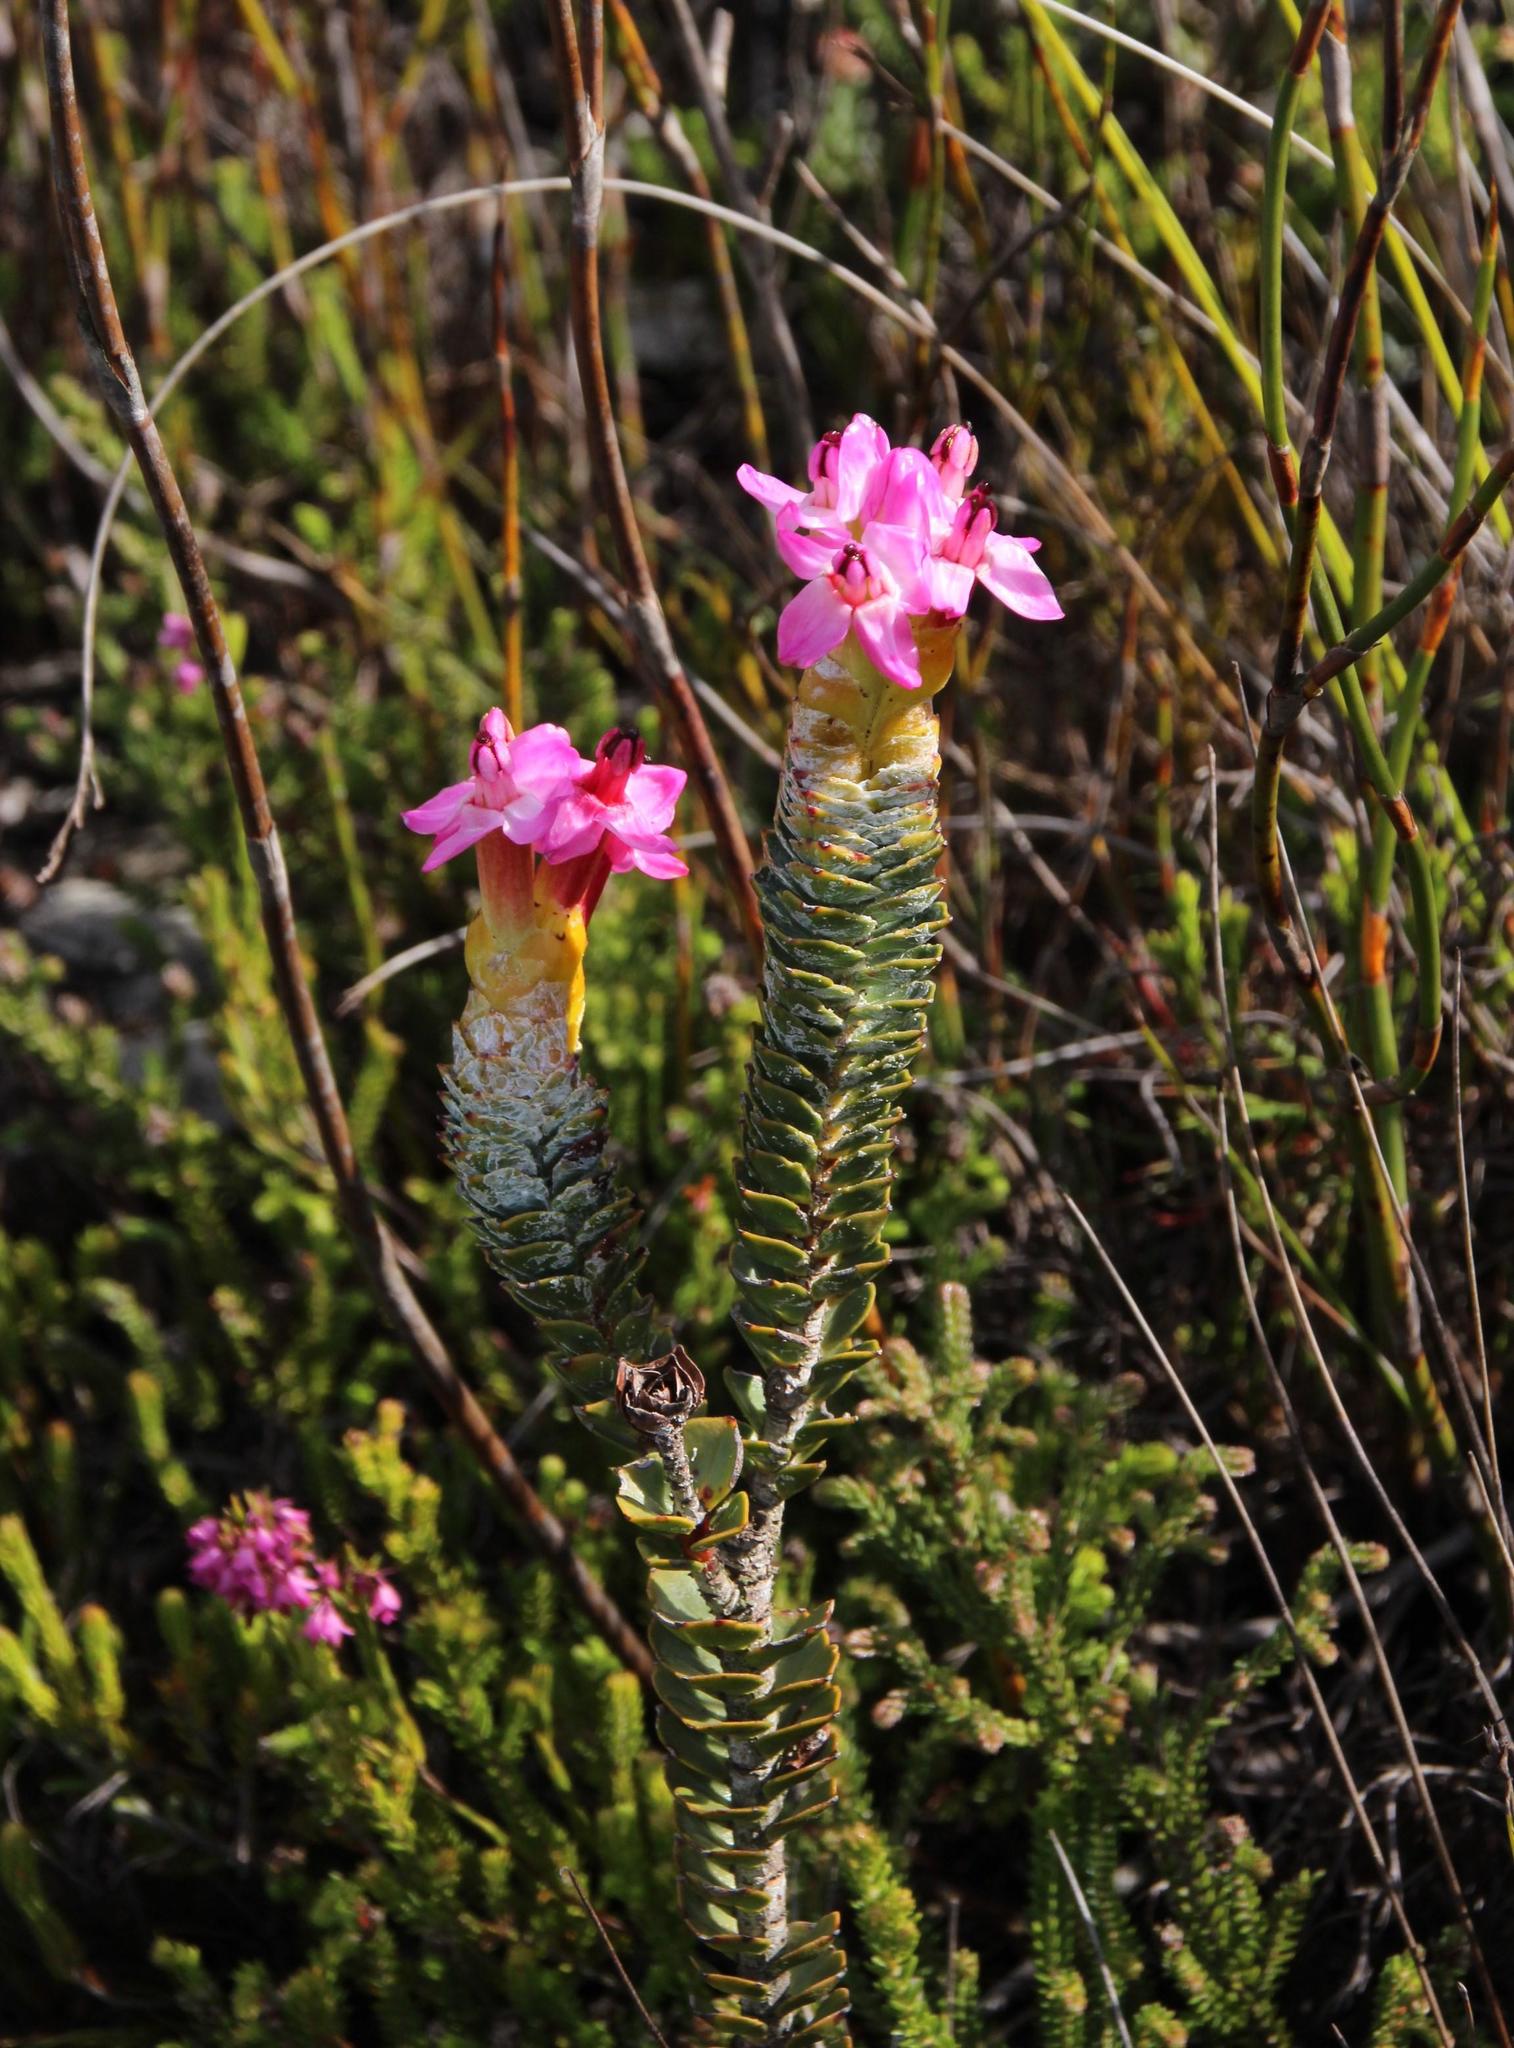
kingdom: Plantae
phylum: Tracheophyta
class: Magnoliopsida
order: Myrtales
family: Penaeaceae
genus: Saltera
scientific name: Saltera sarcocolla
